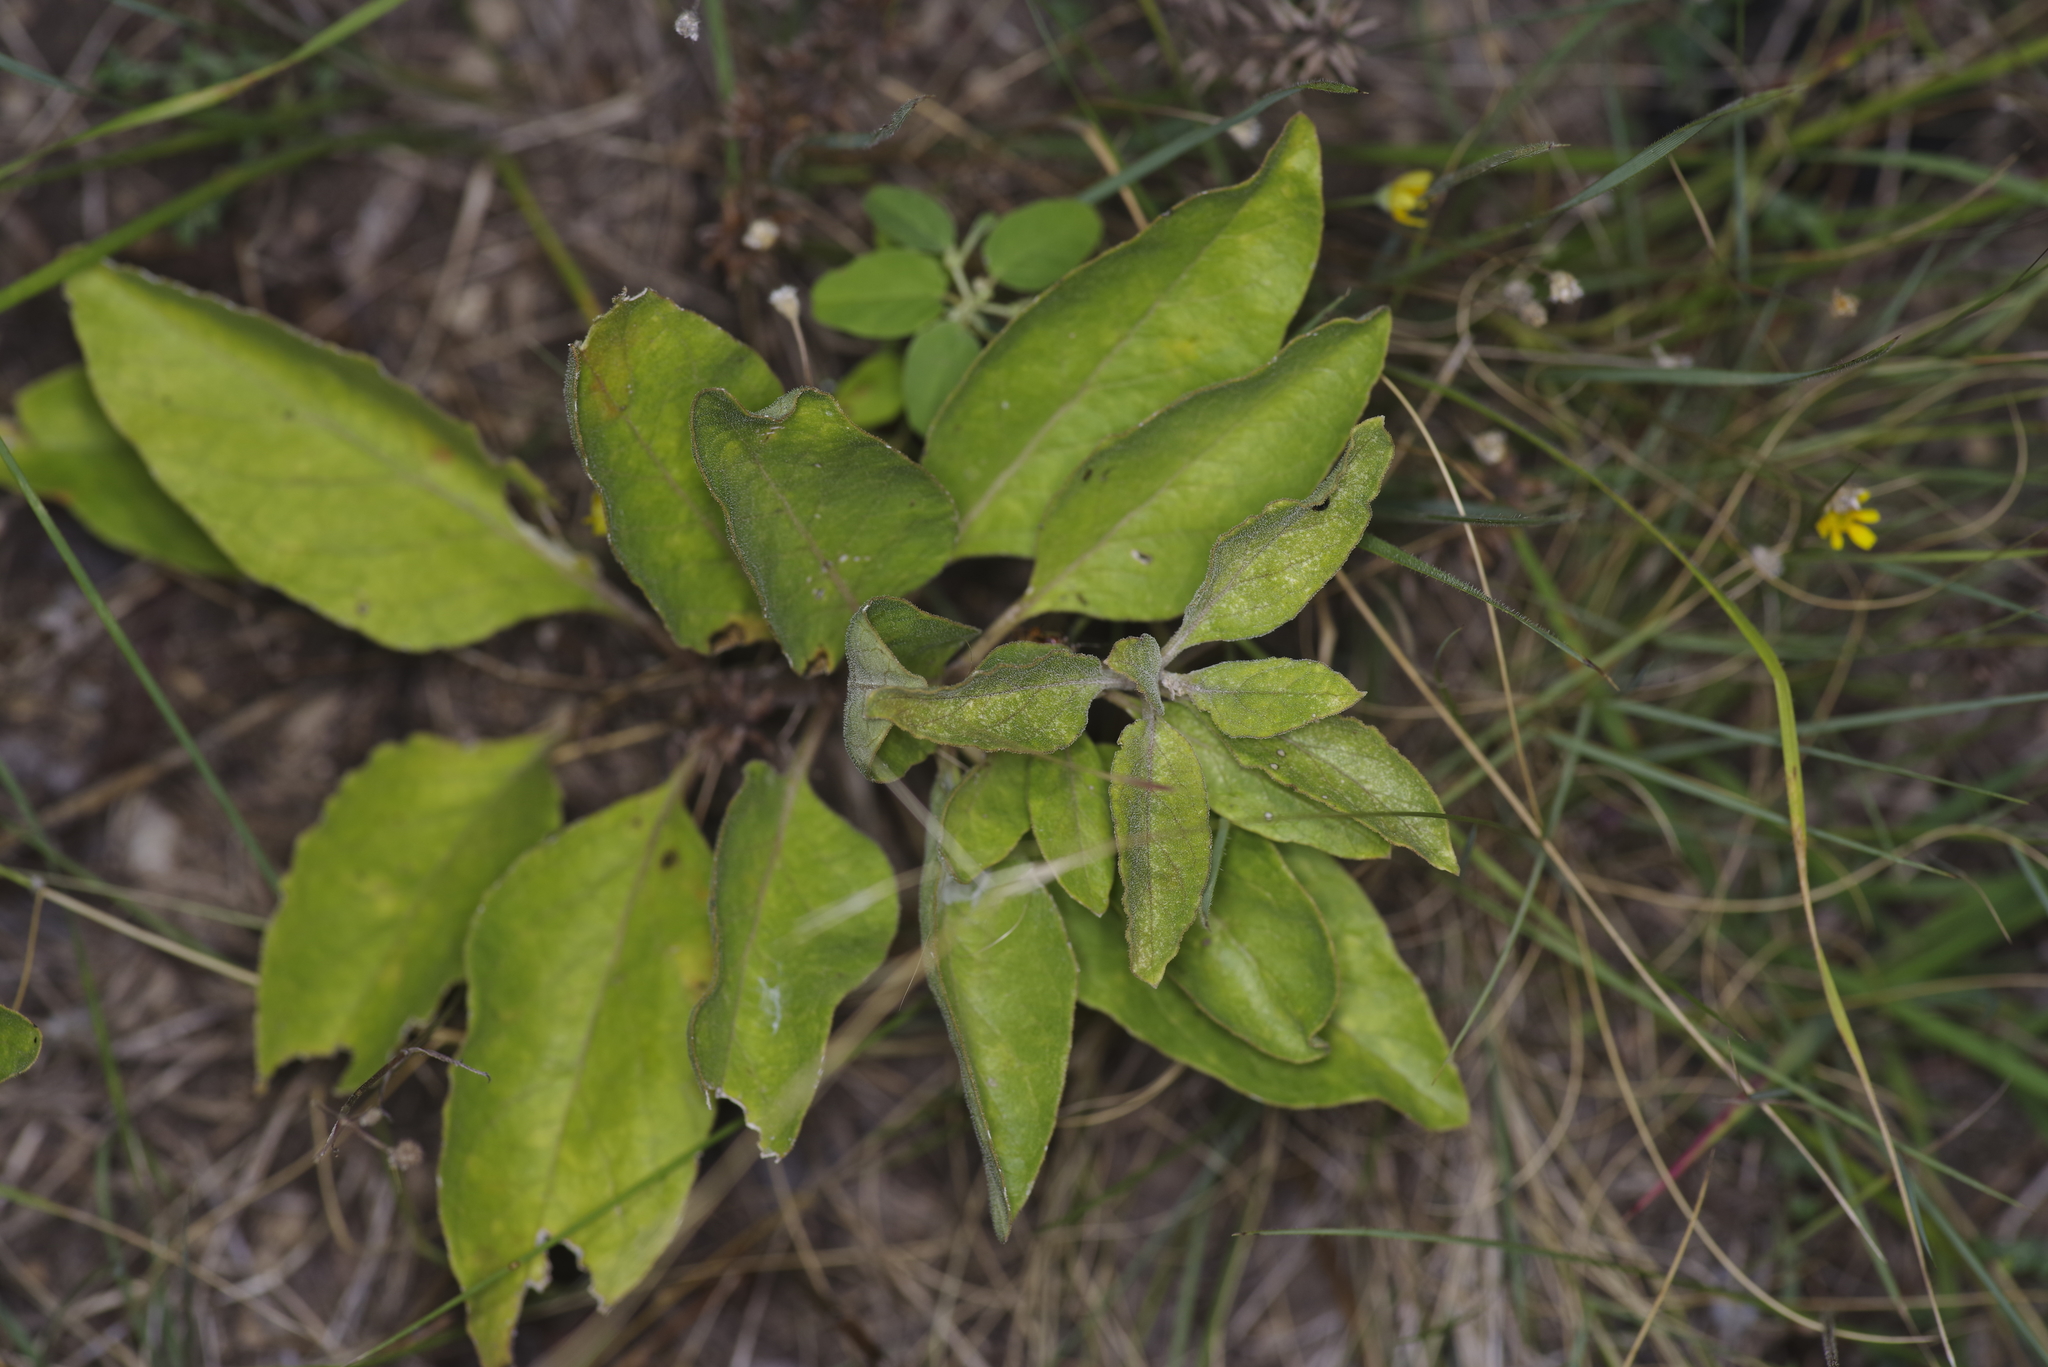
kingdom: Plantae
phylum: Tracheophyta
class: Magnoliopsida
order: Gentianales
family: Apocynaceae
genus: Asclepias
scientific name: Asclepias oenotheroides
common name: Zizotes milkweed
